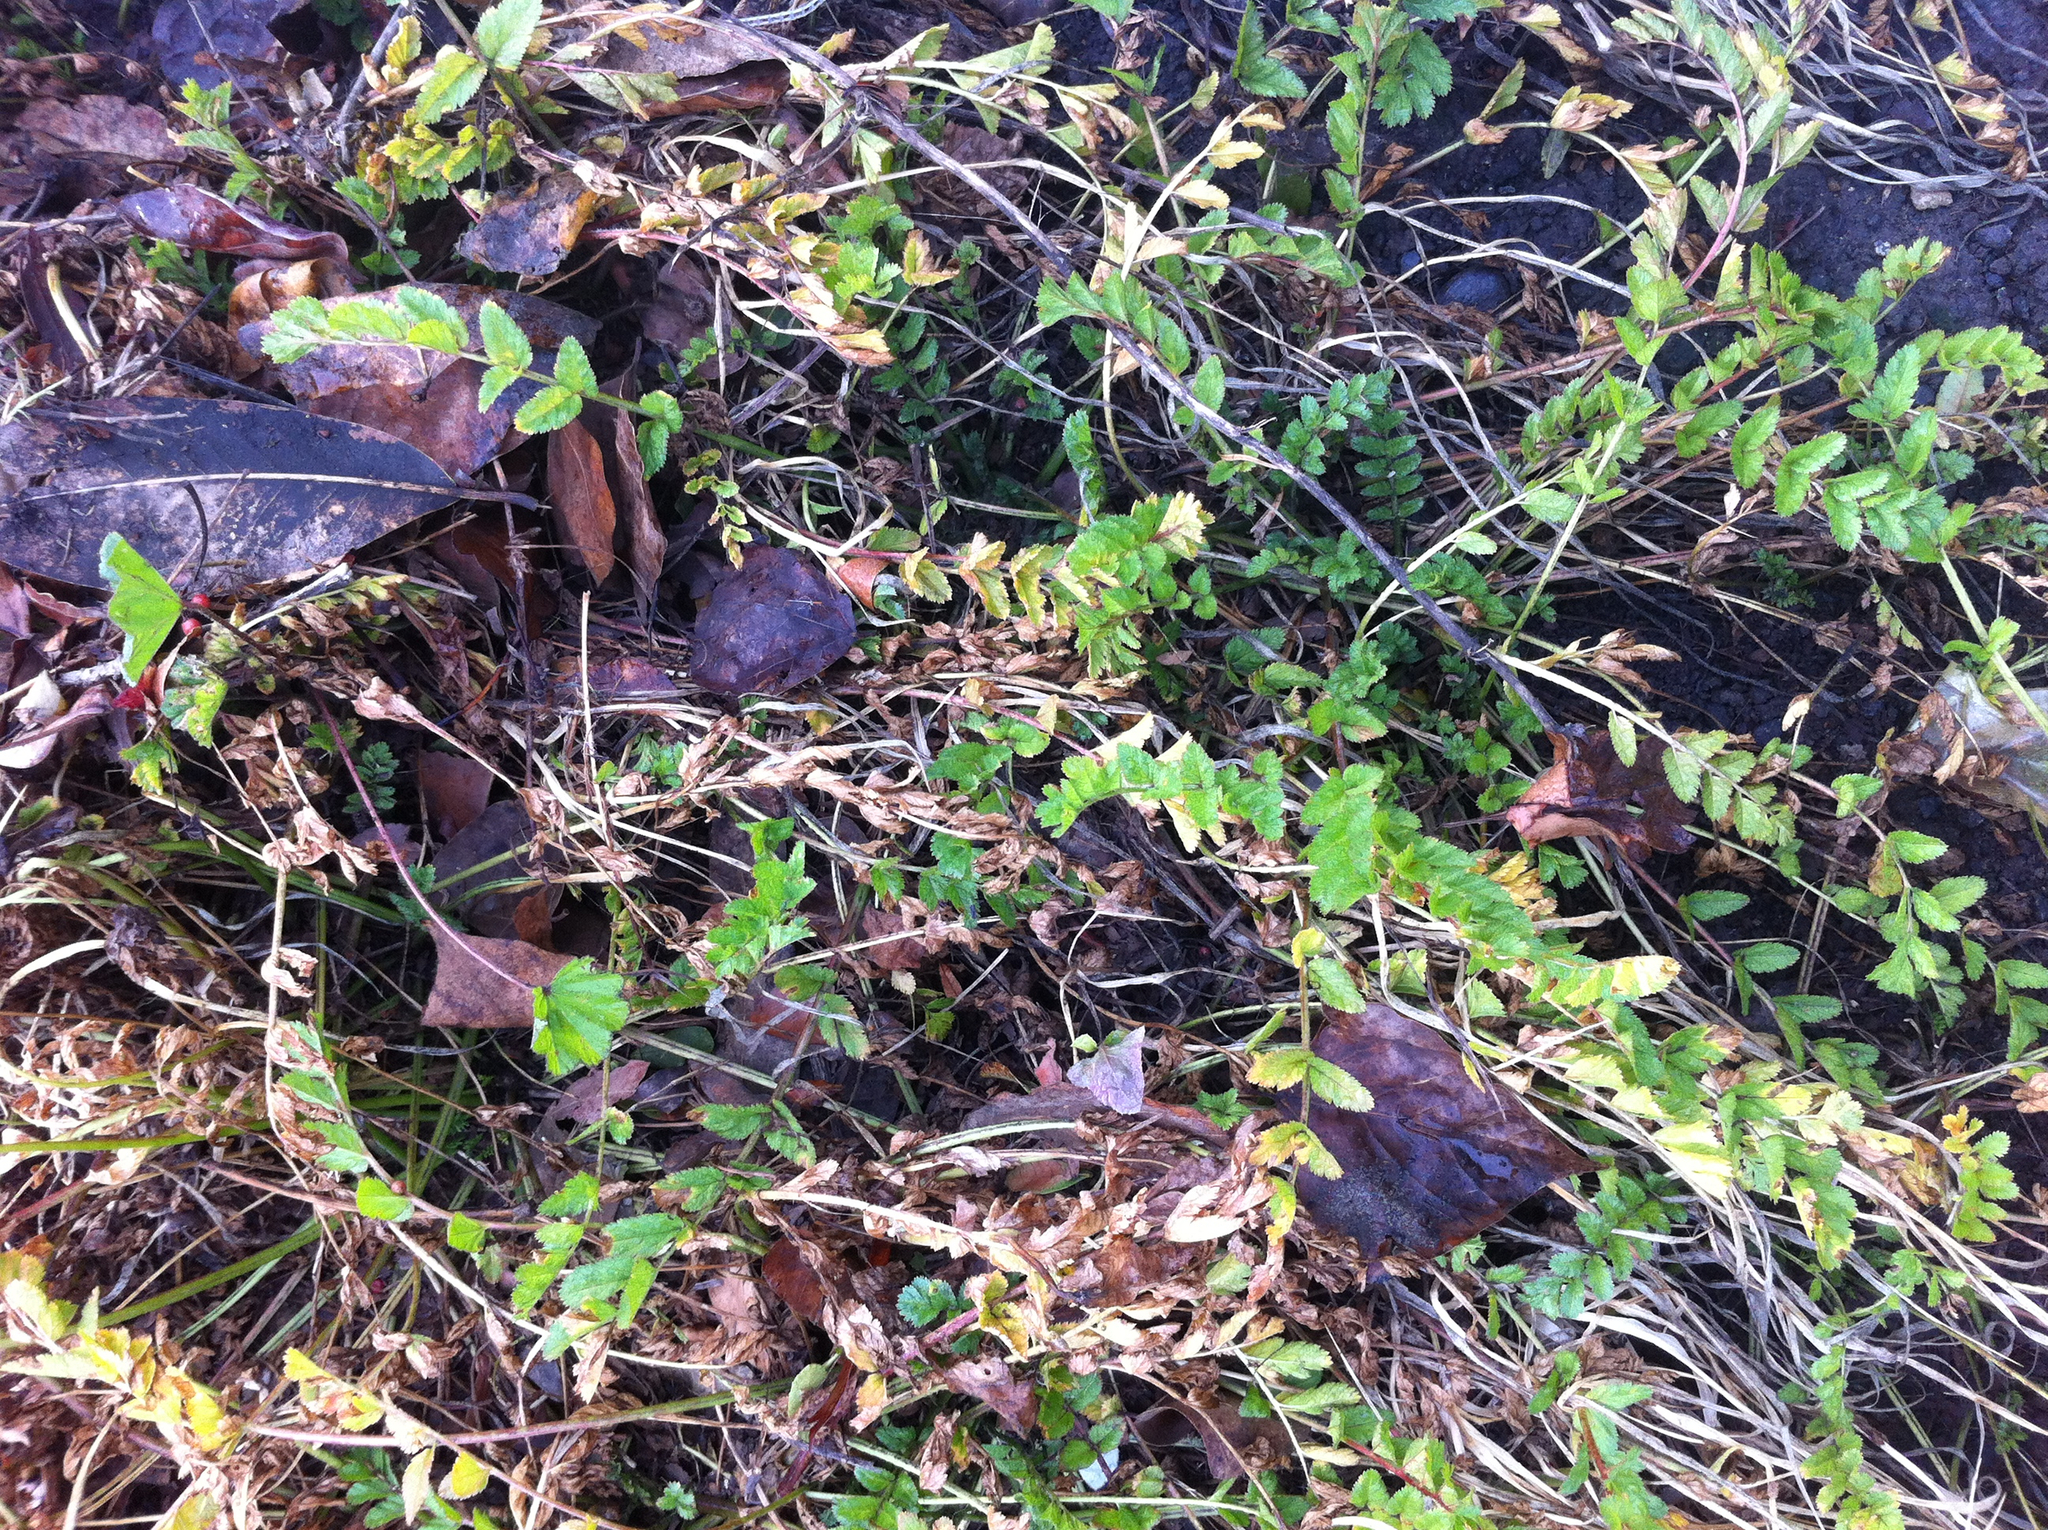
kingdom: Plantae
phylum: Tracheophyta
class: Magnoliopsida
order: Geraniales
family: Geraniaceae
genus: Erodium
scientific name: Erodium moschatum
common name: Musk stork's-bill
